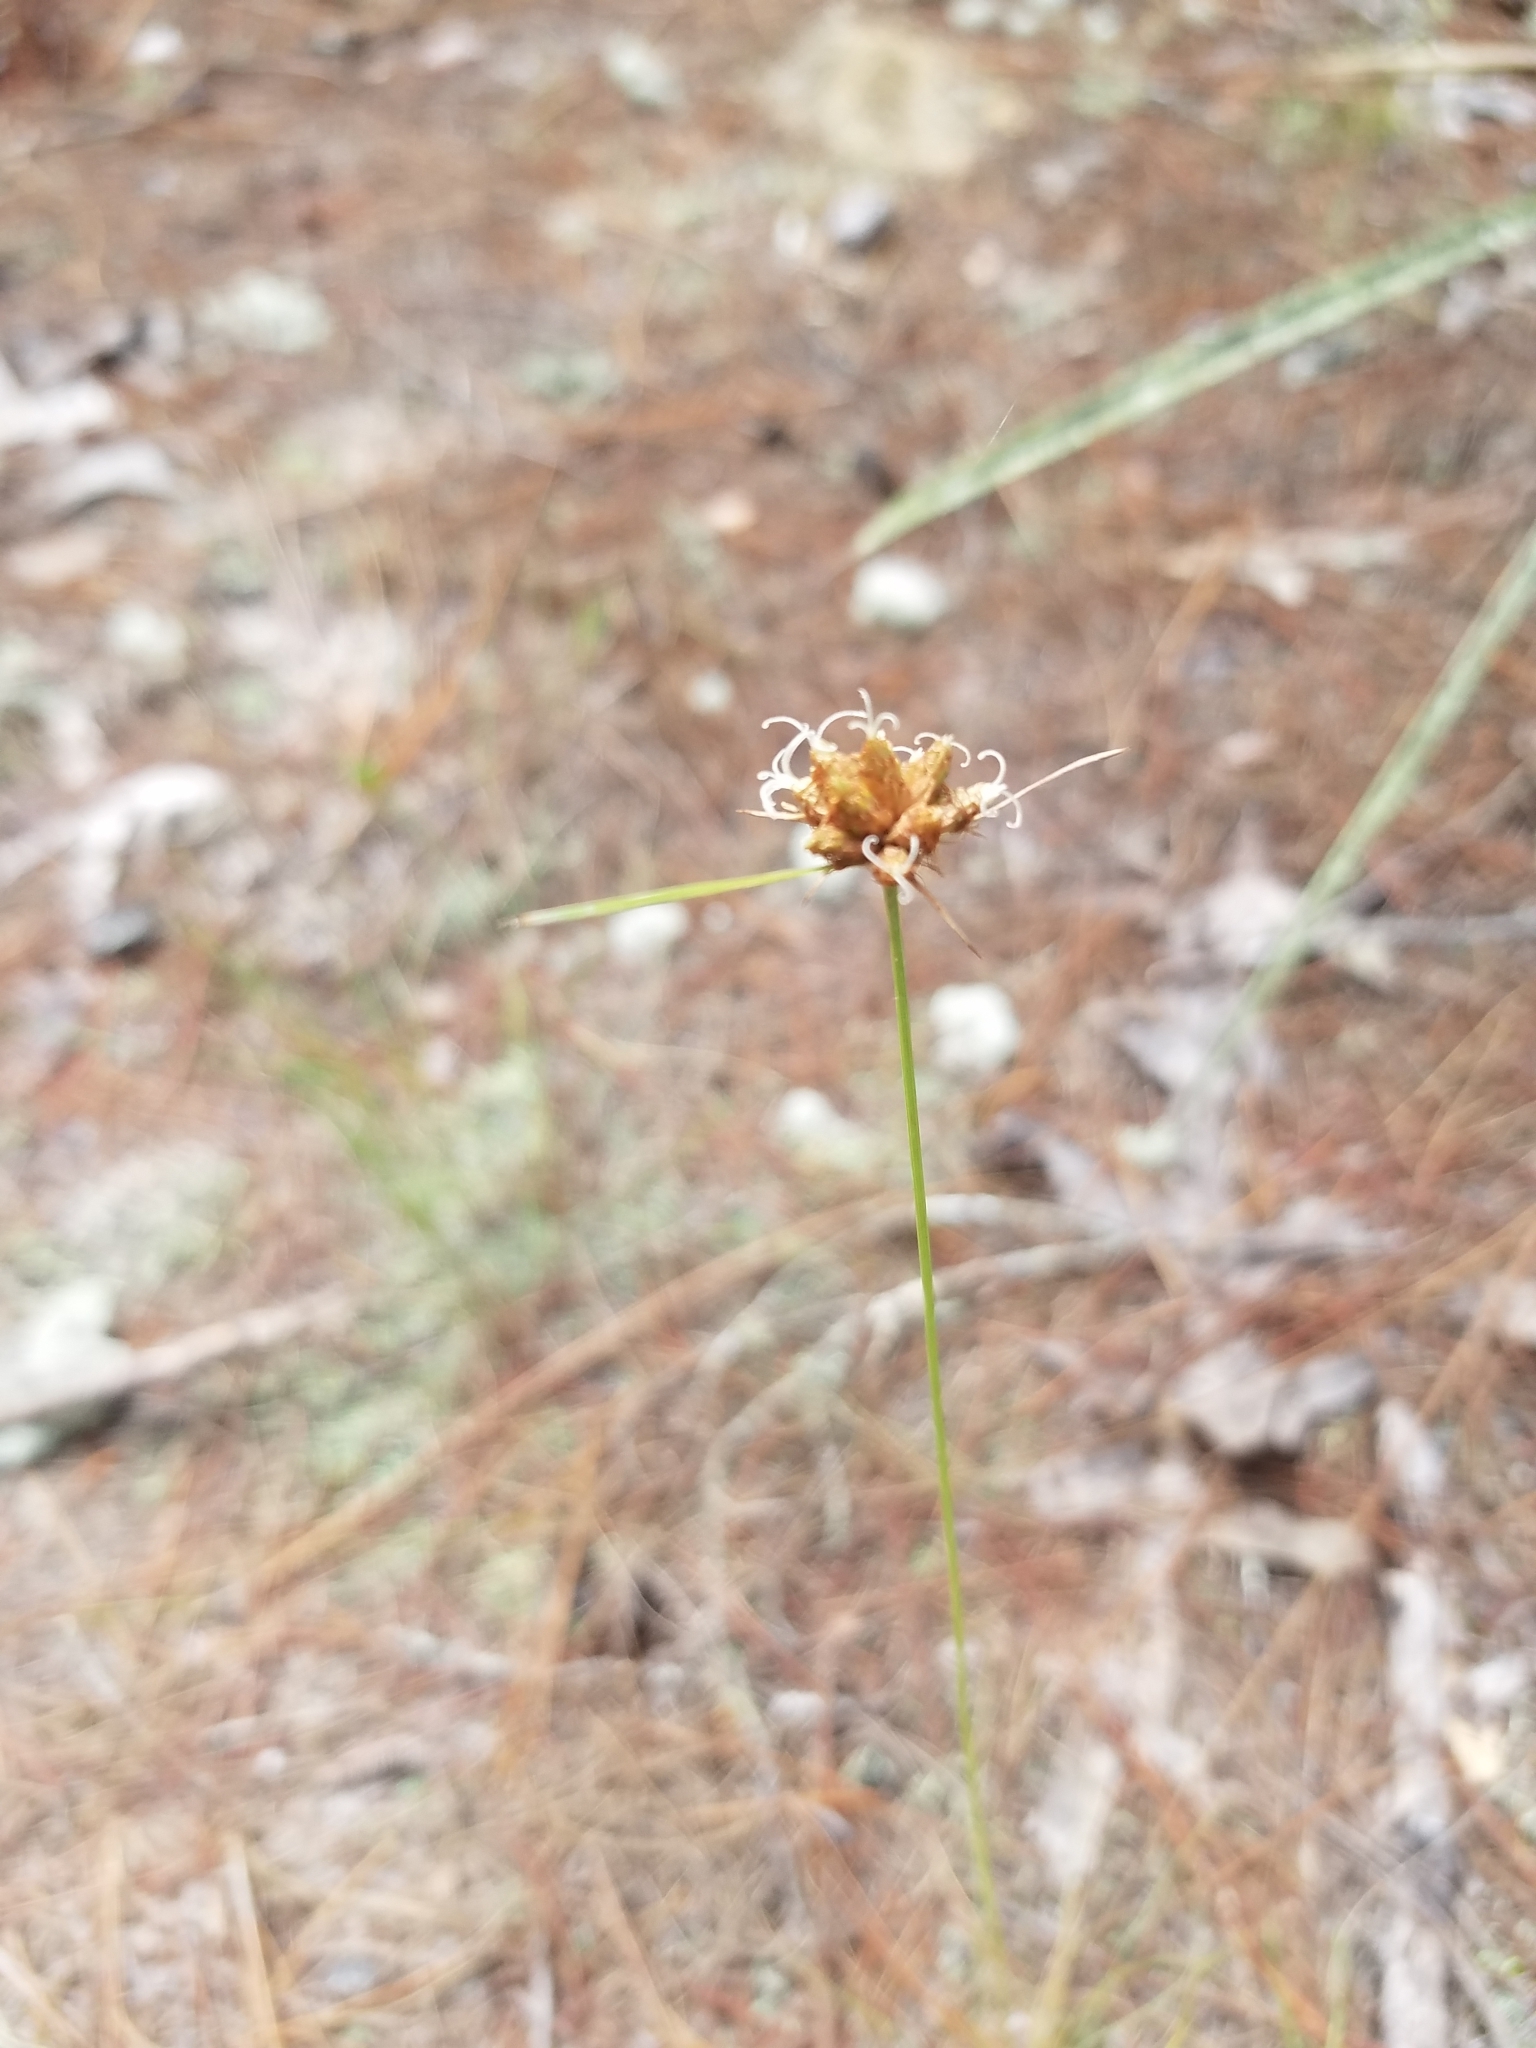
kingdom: Plantae
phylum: Tracheophyta
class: Liliopsida
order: Poales
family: Cyperaceae
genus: Bulbostylis
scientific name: Bulbostylis warei
